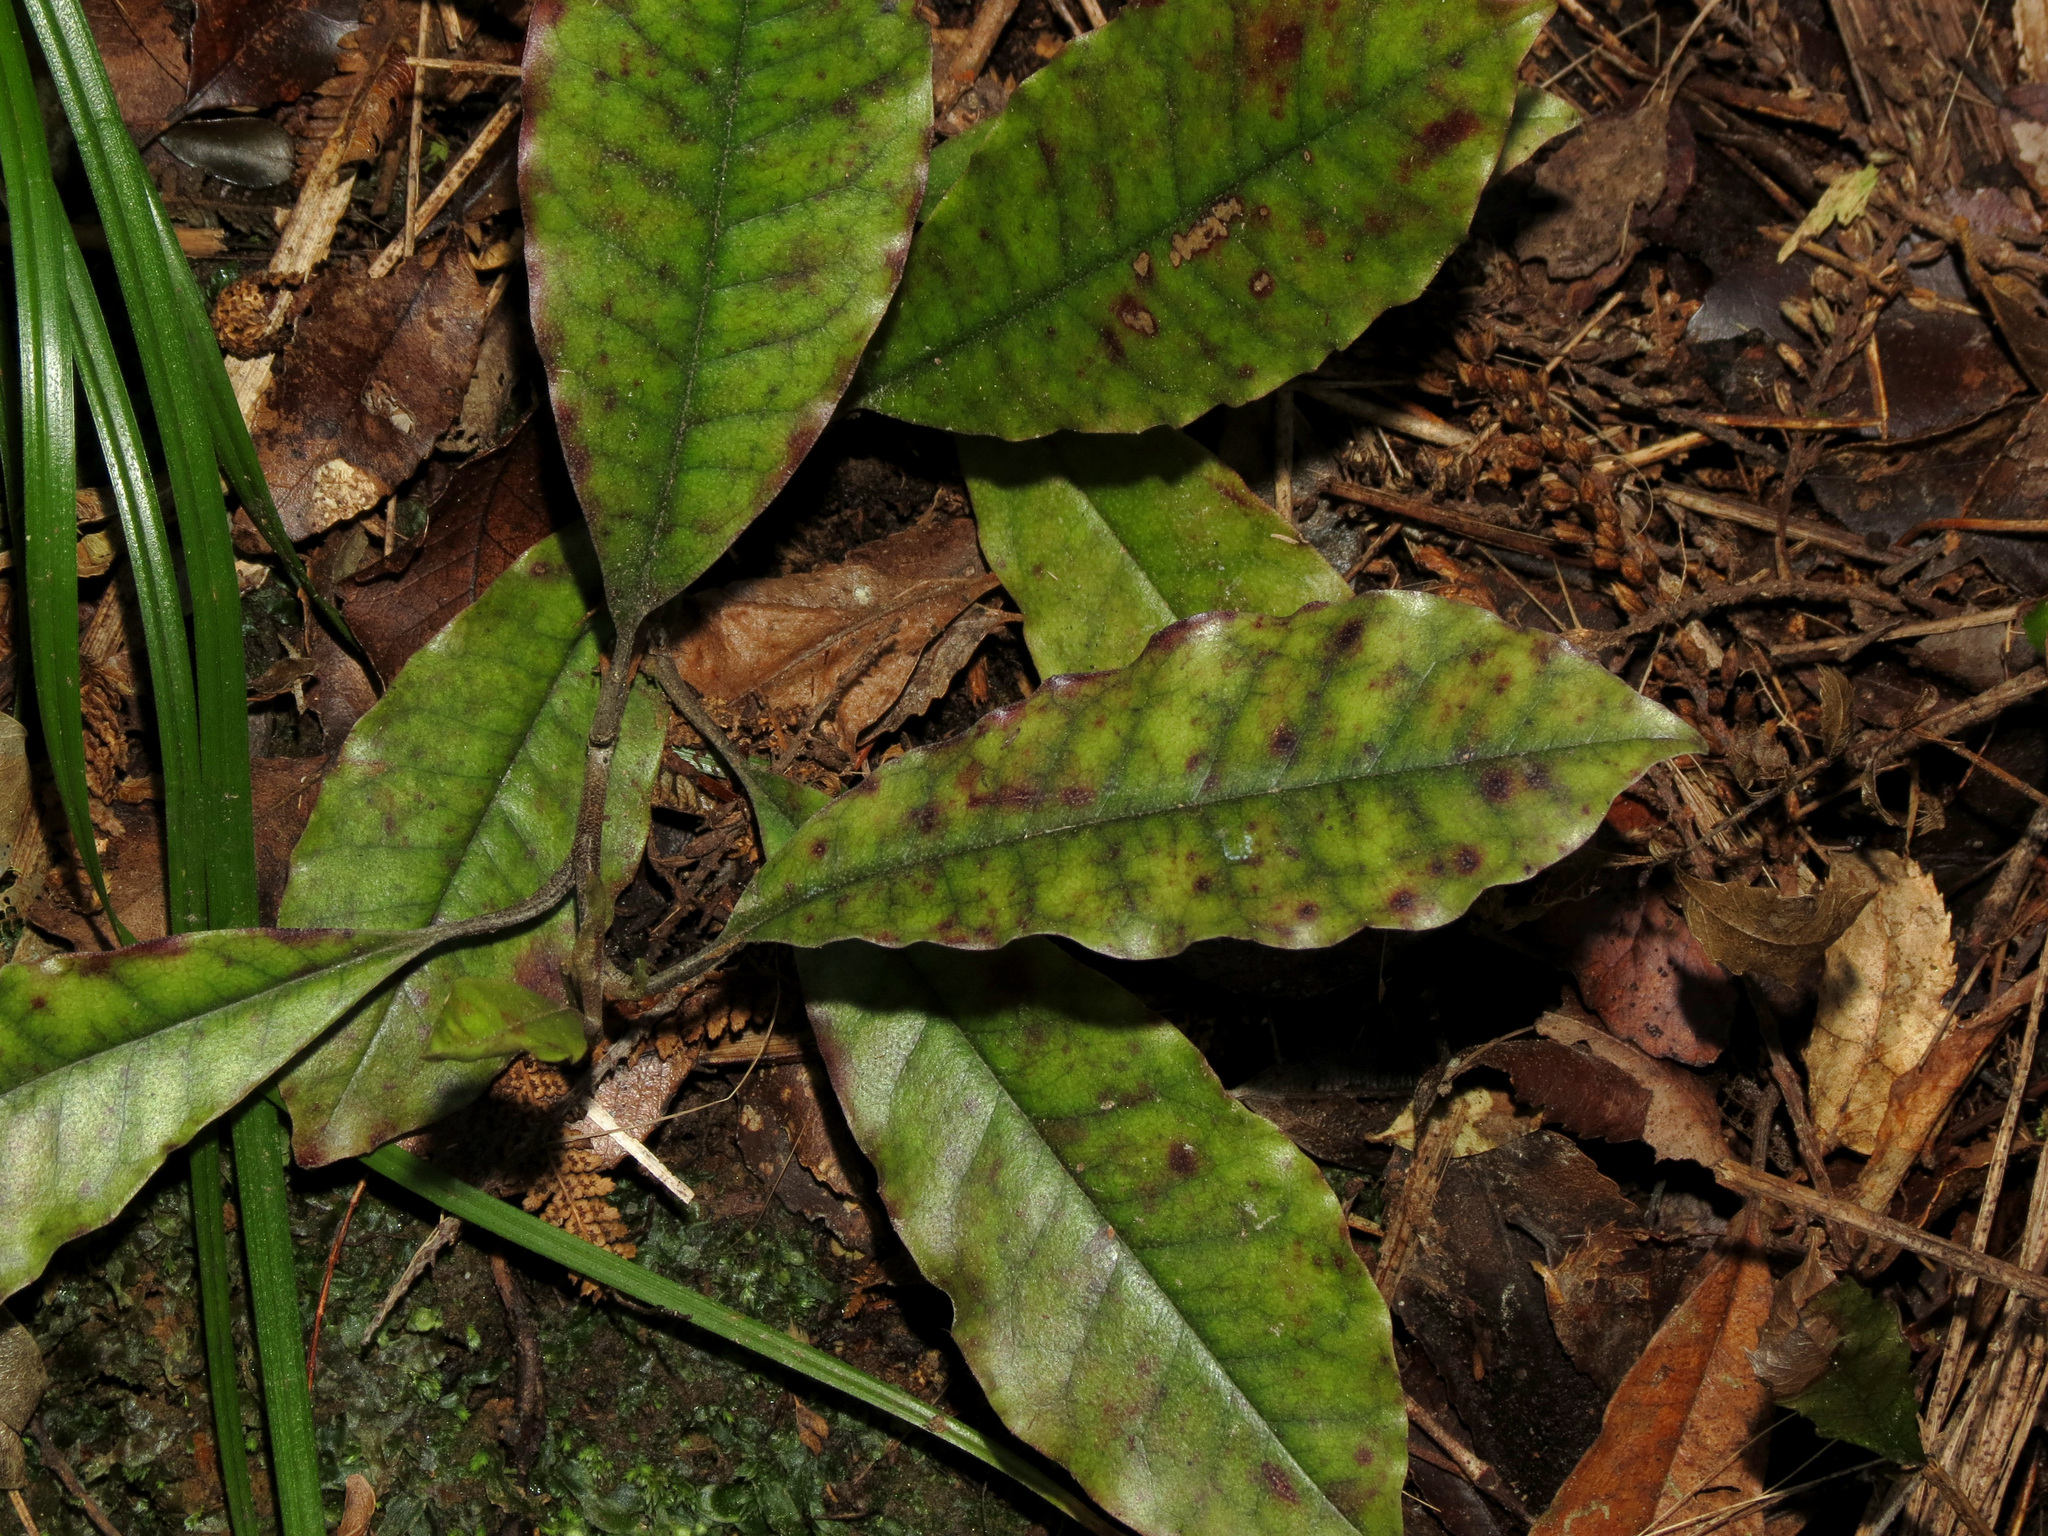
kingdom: Plantae
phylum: Tracheophyta
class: Magnoliopsida
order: Paracryphiales
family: Paracryphiaceae
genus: Quintinia
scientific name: Quintinia serrata
